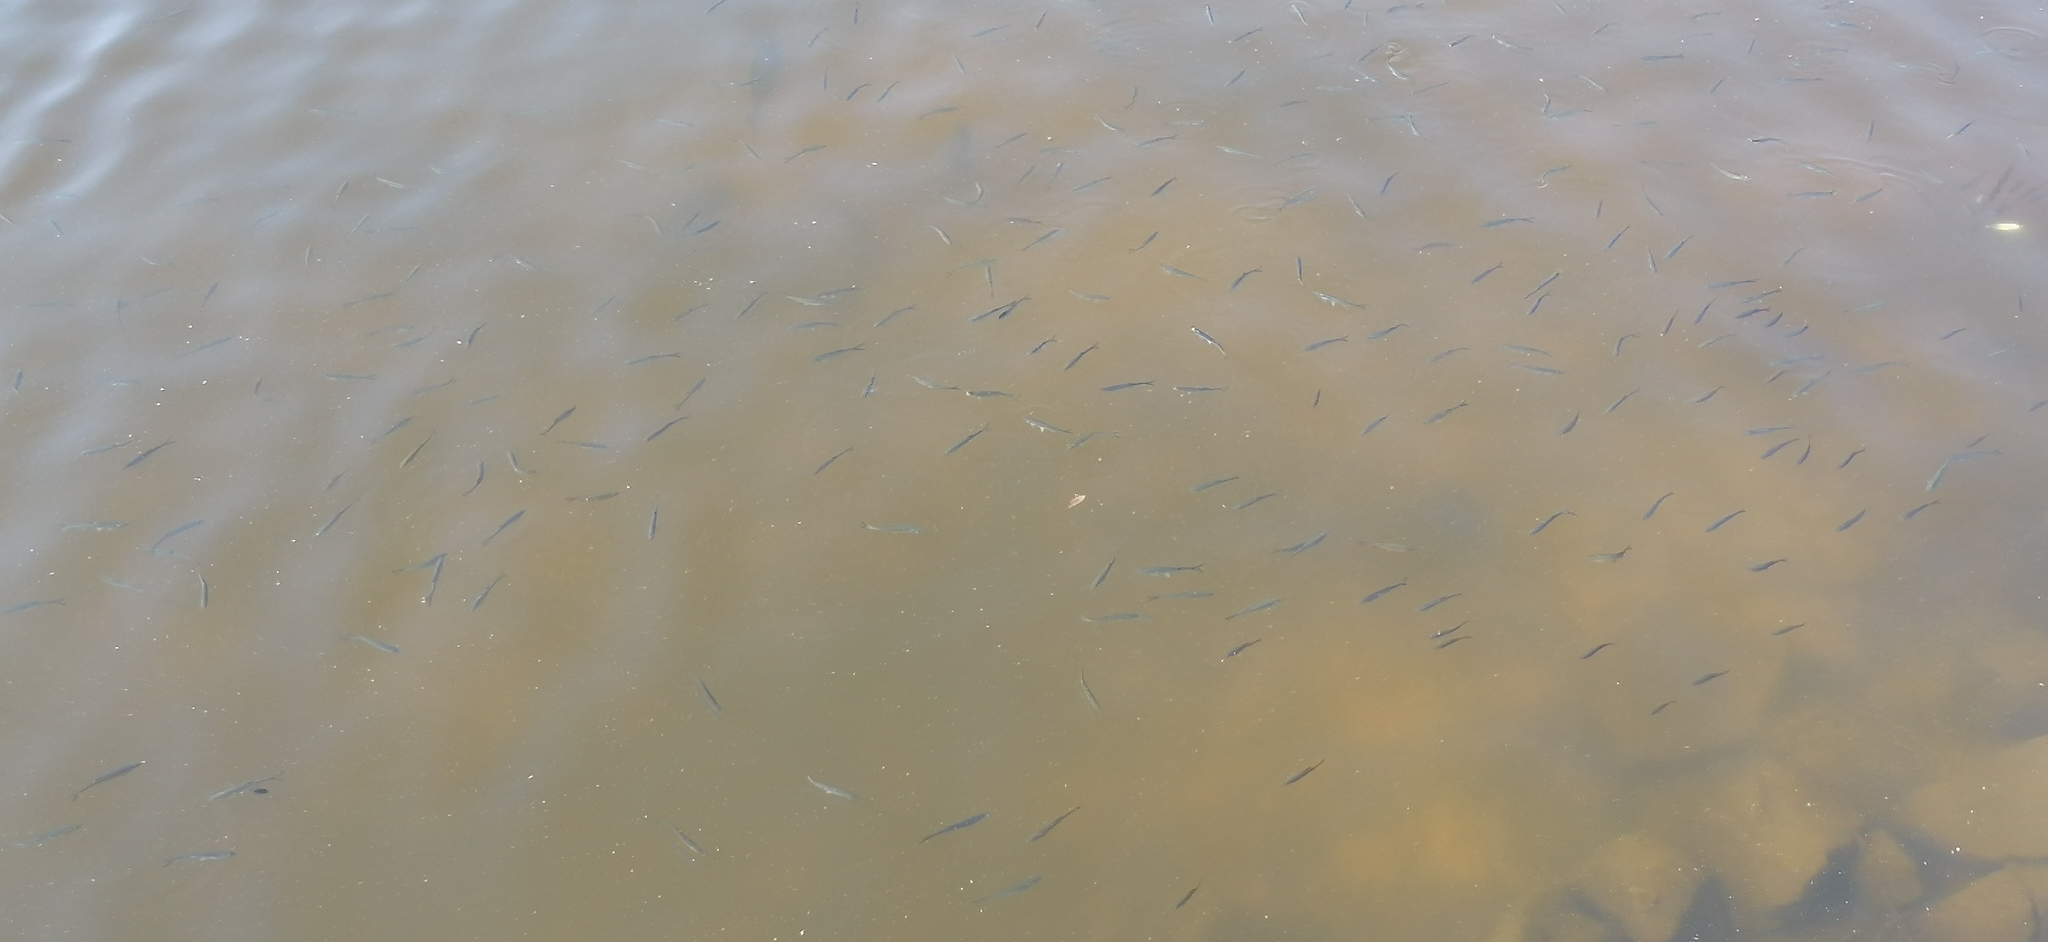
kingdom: Animalia
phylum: Chordata
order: Cypriniformes
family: Cyprinidae
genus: Scardinius
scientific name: Scardinius erythrophthalmus
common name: Rudd
